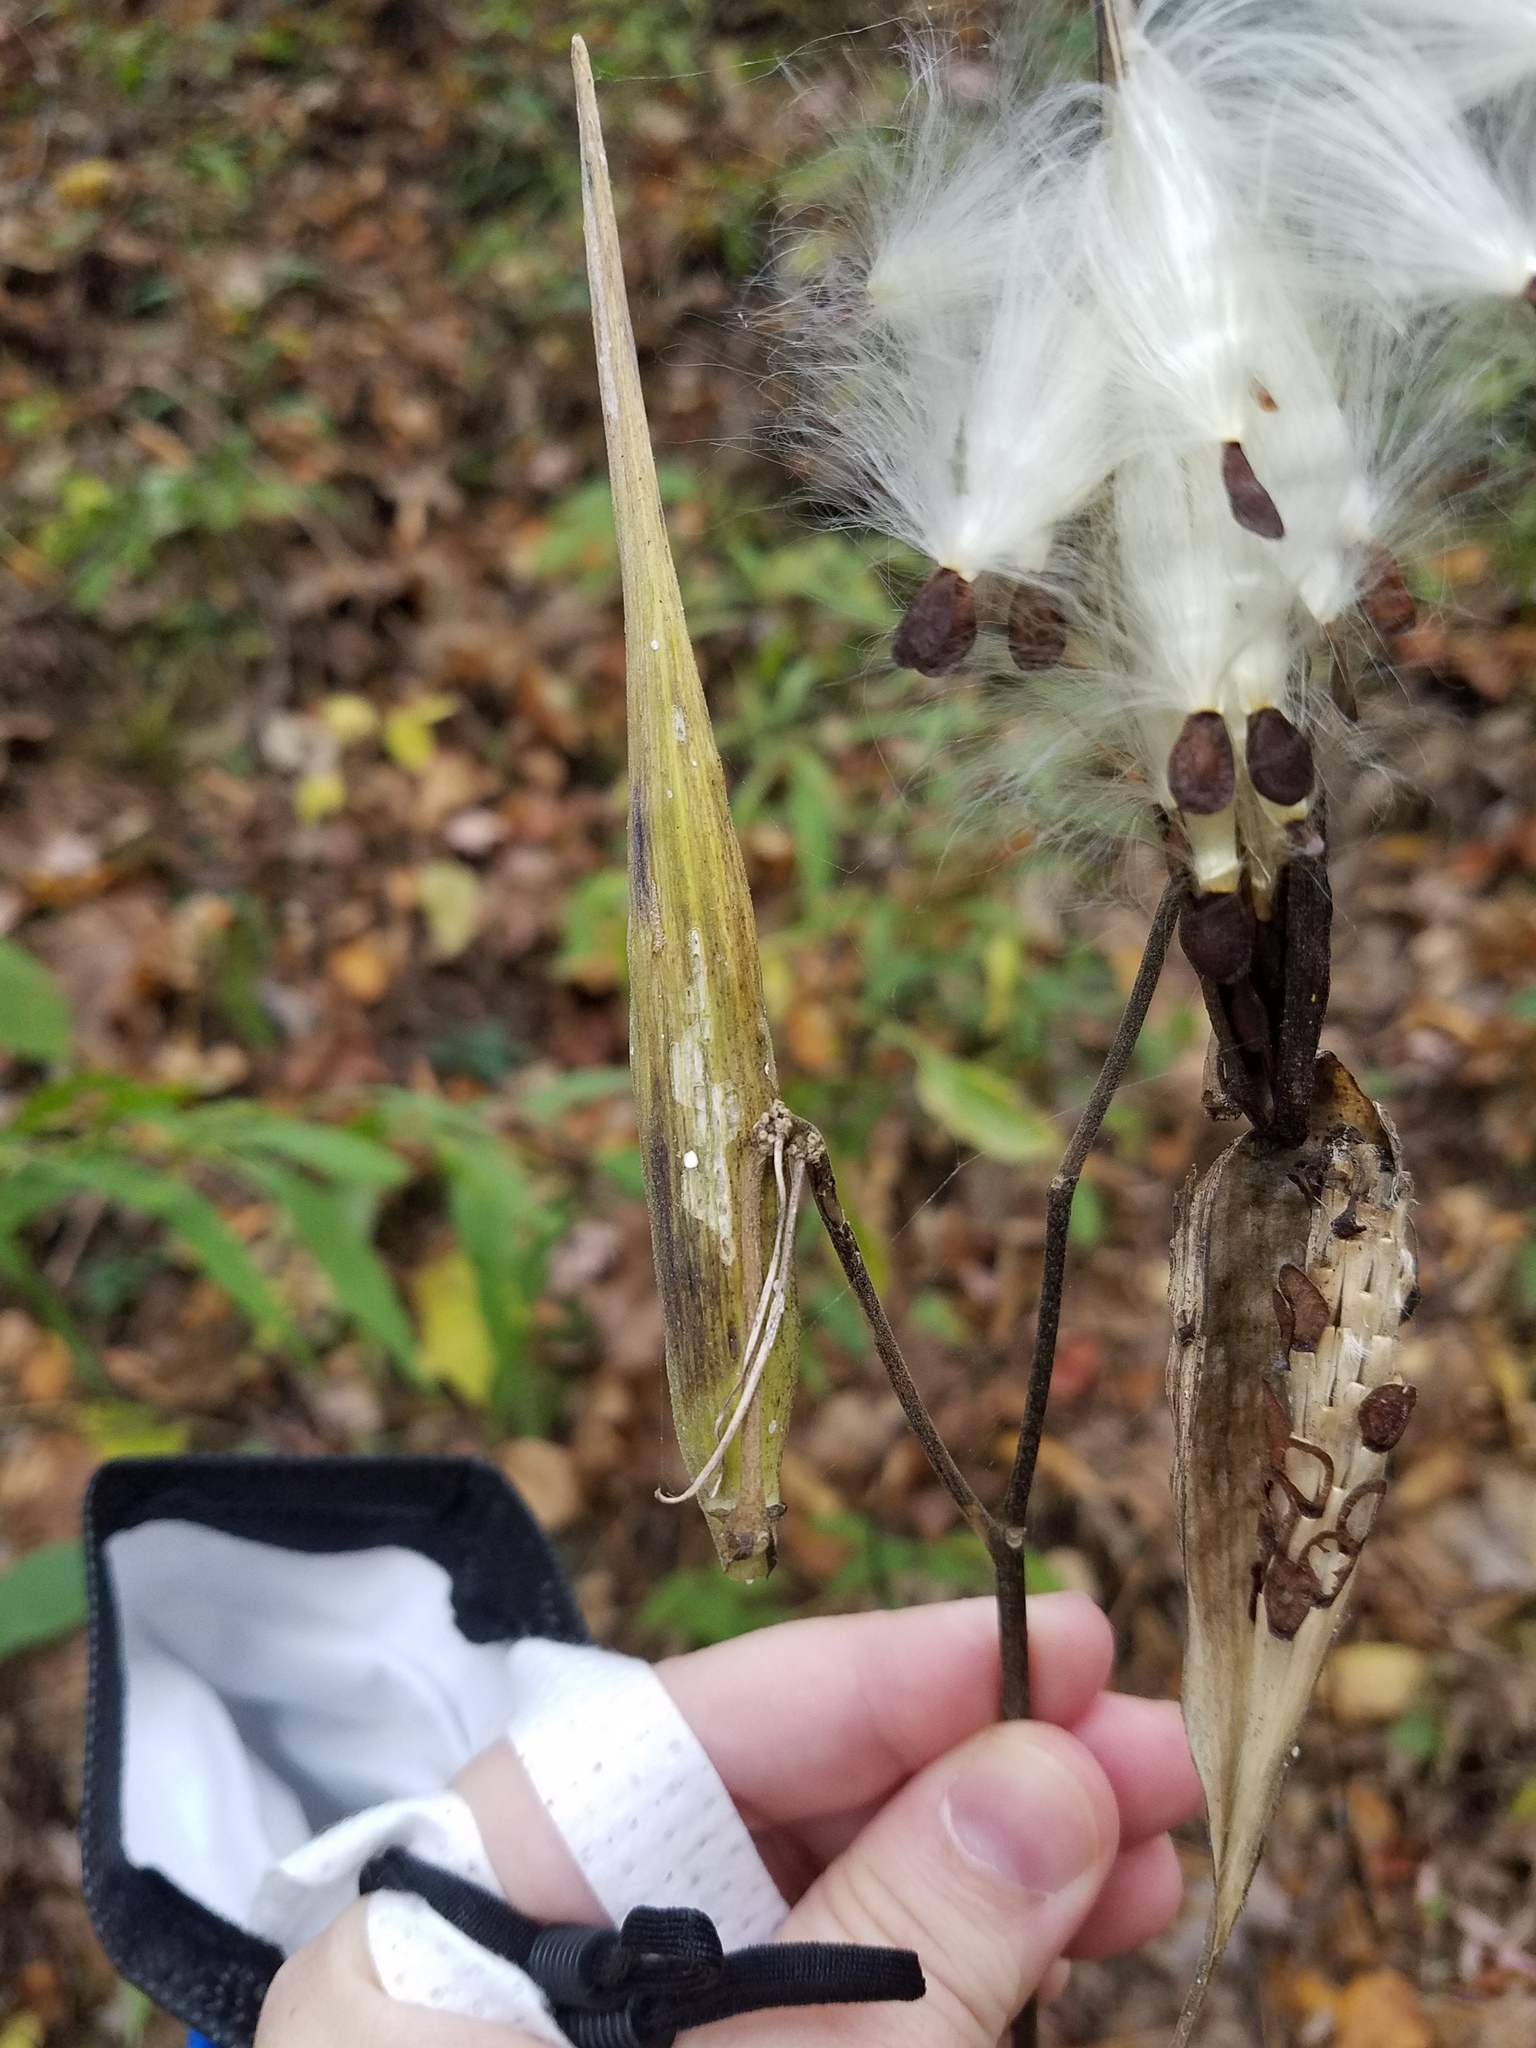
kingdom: Plantae
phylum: Tracheophyta
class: Magnoliopsida
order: Gentianales
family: Apocynaceae
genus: Asclepias
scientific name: Asclepias exaltata
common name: Poke milkweed
